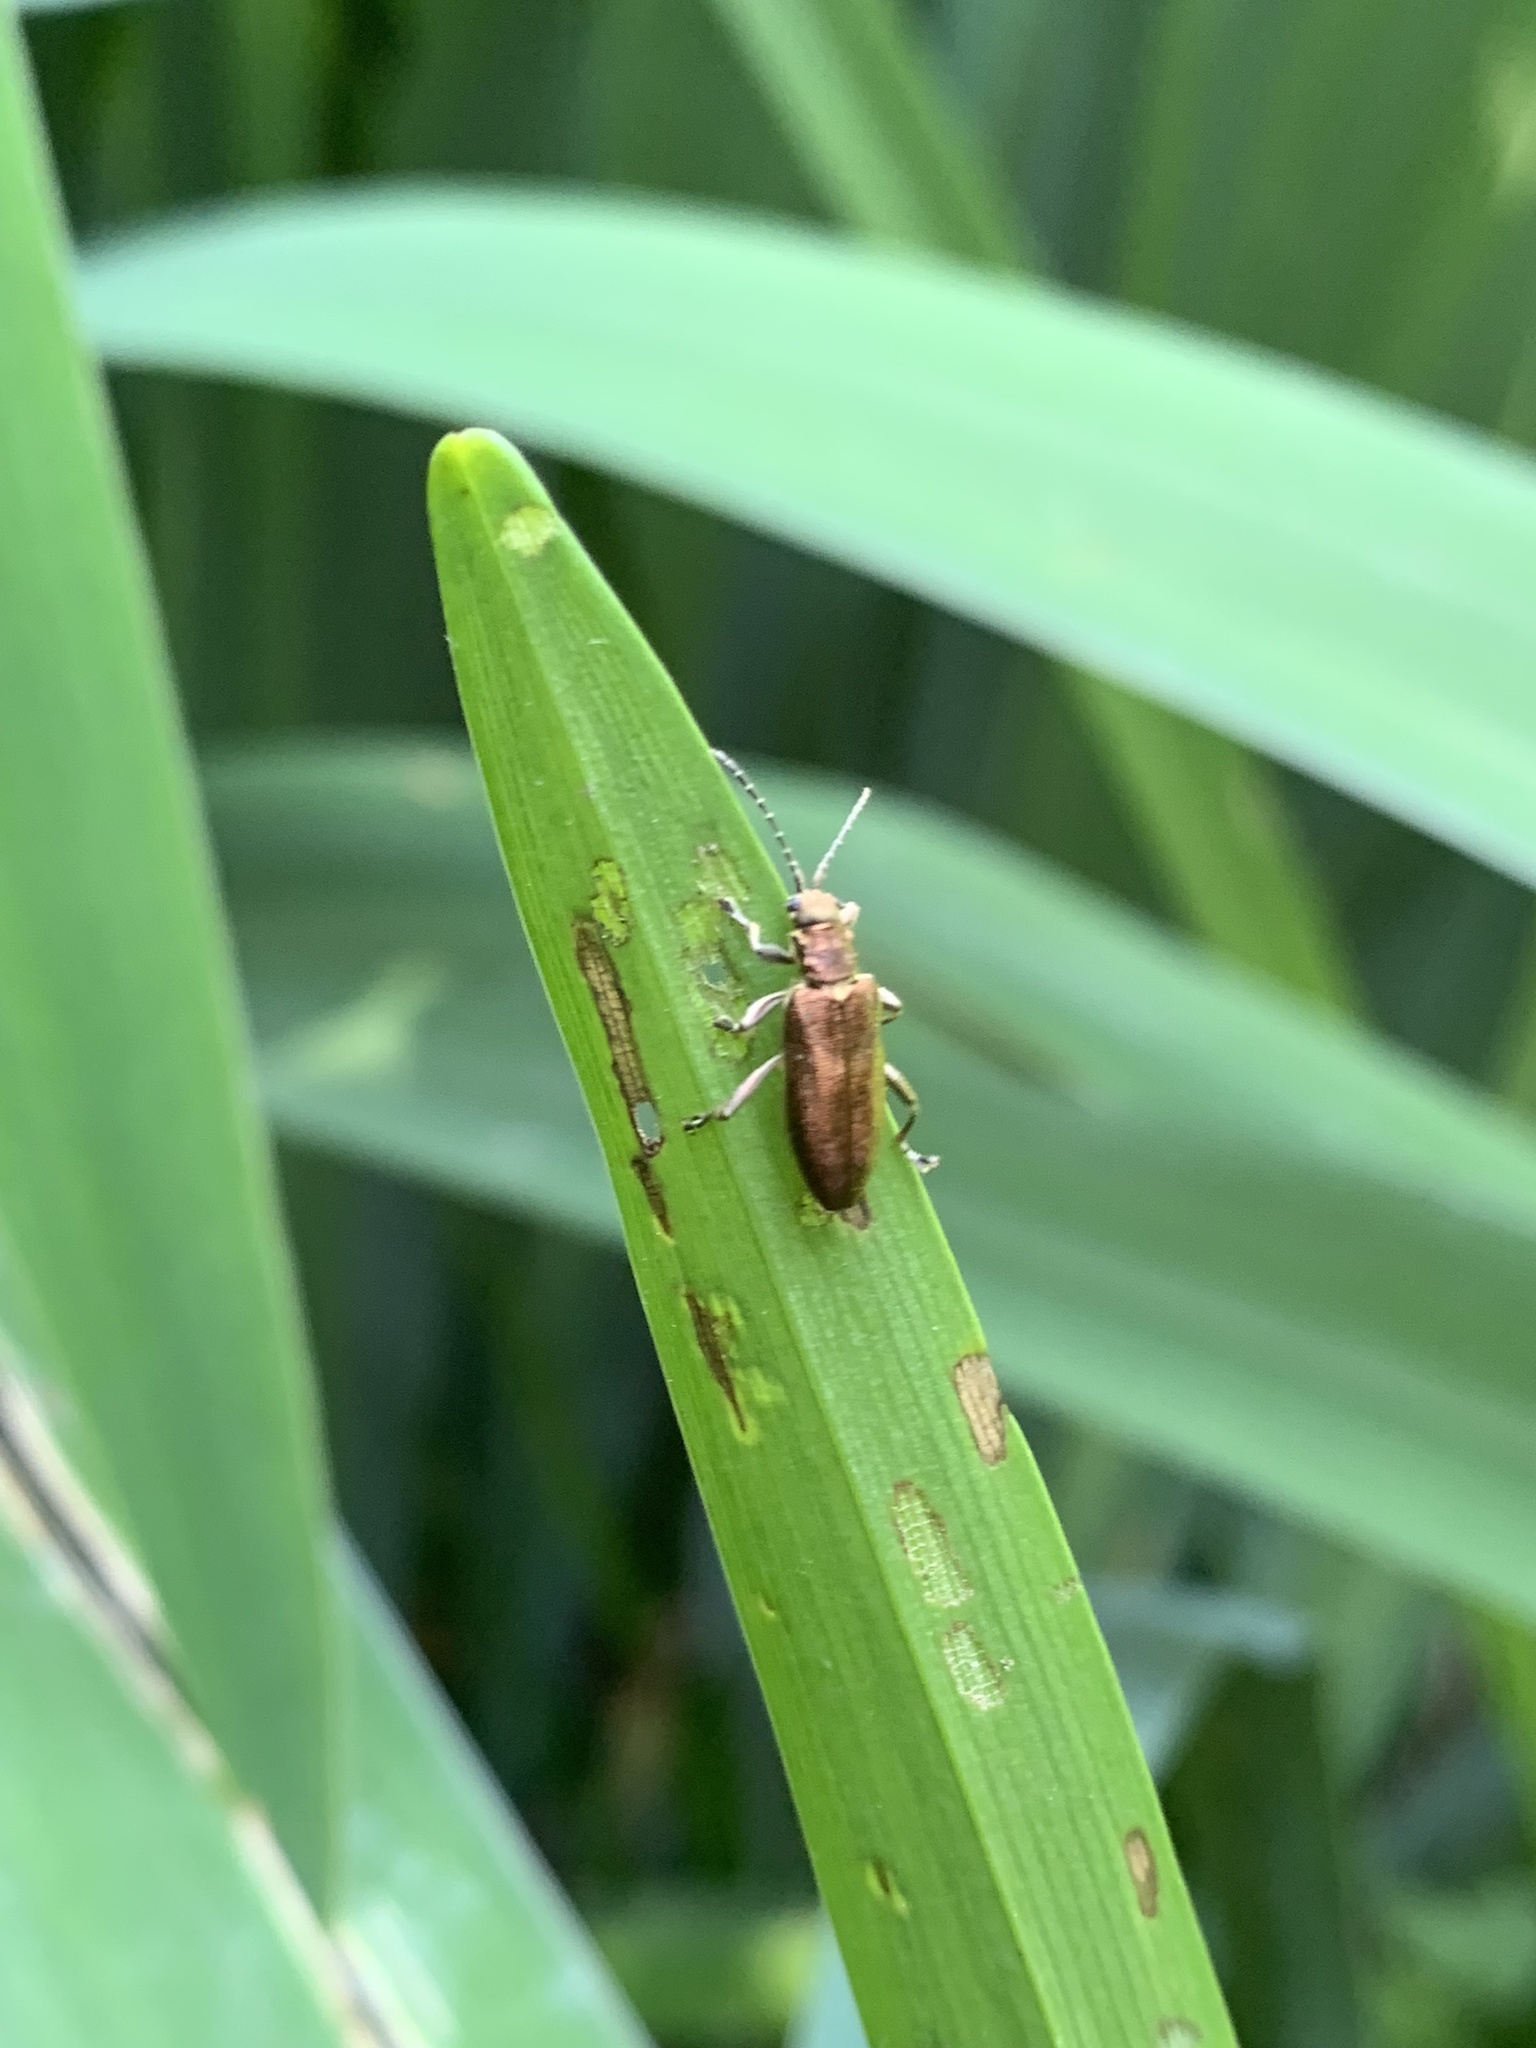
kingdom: Animalia
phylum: Arthropoda
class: Insecta
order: Coleoptera
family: Chrysomelidae
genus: Donacia
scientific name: Donacia simplex
